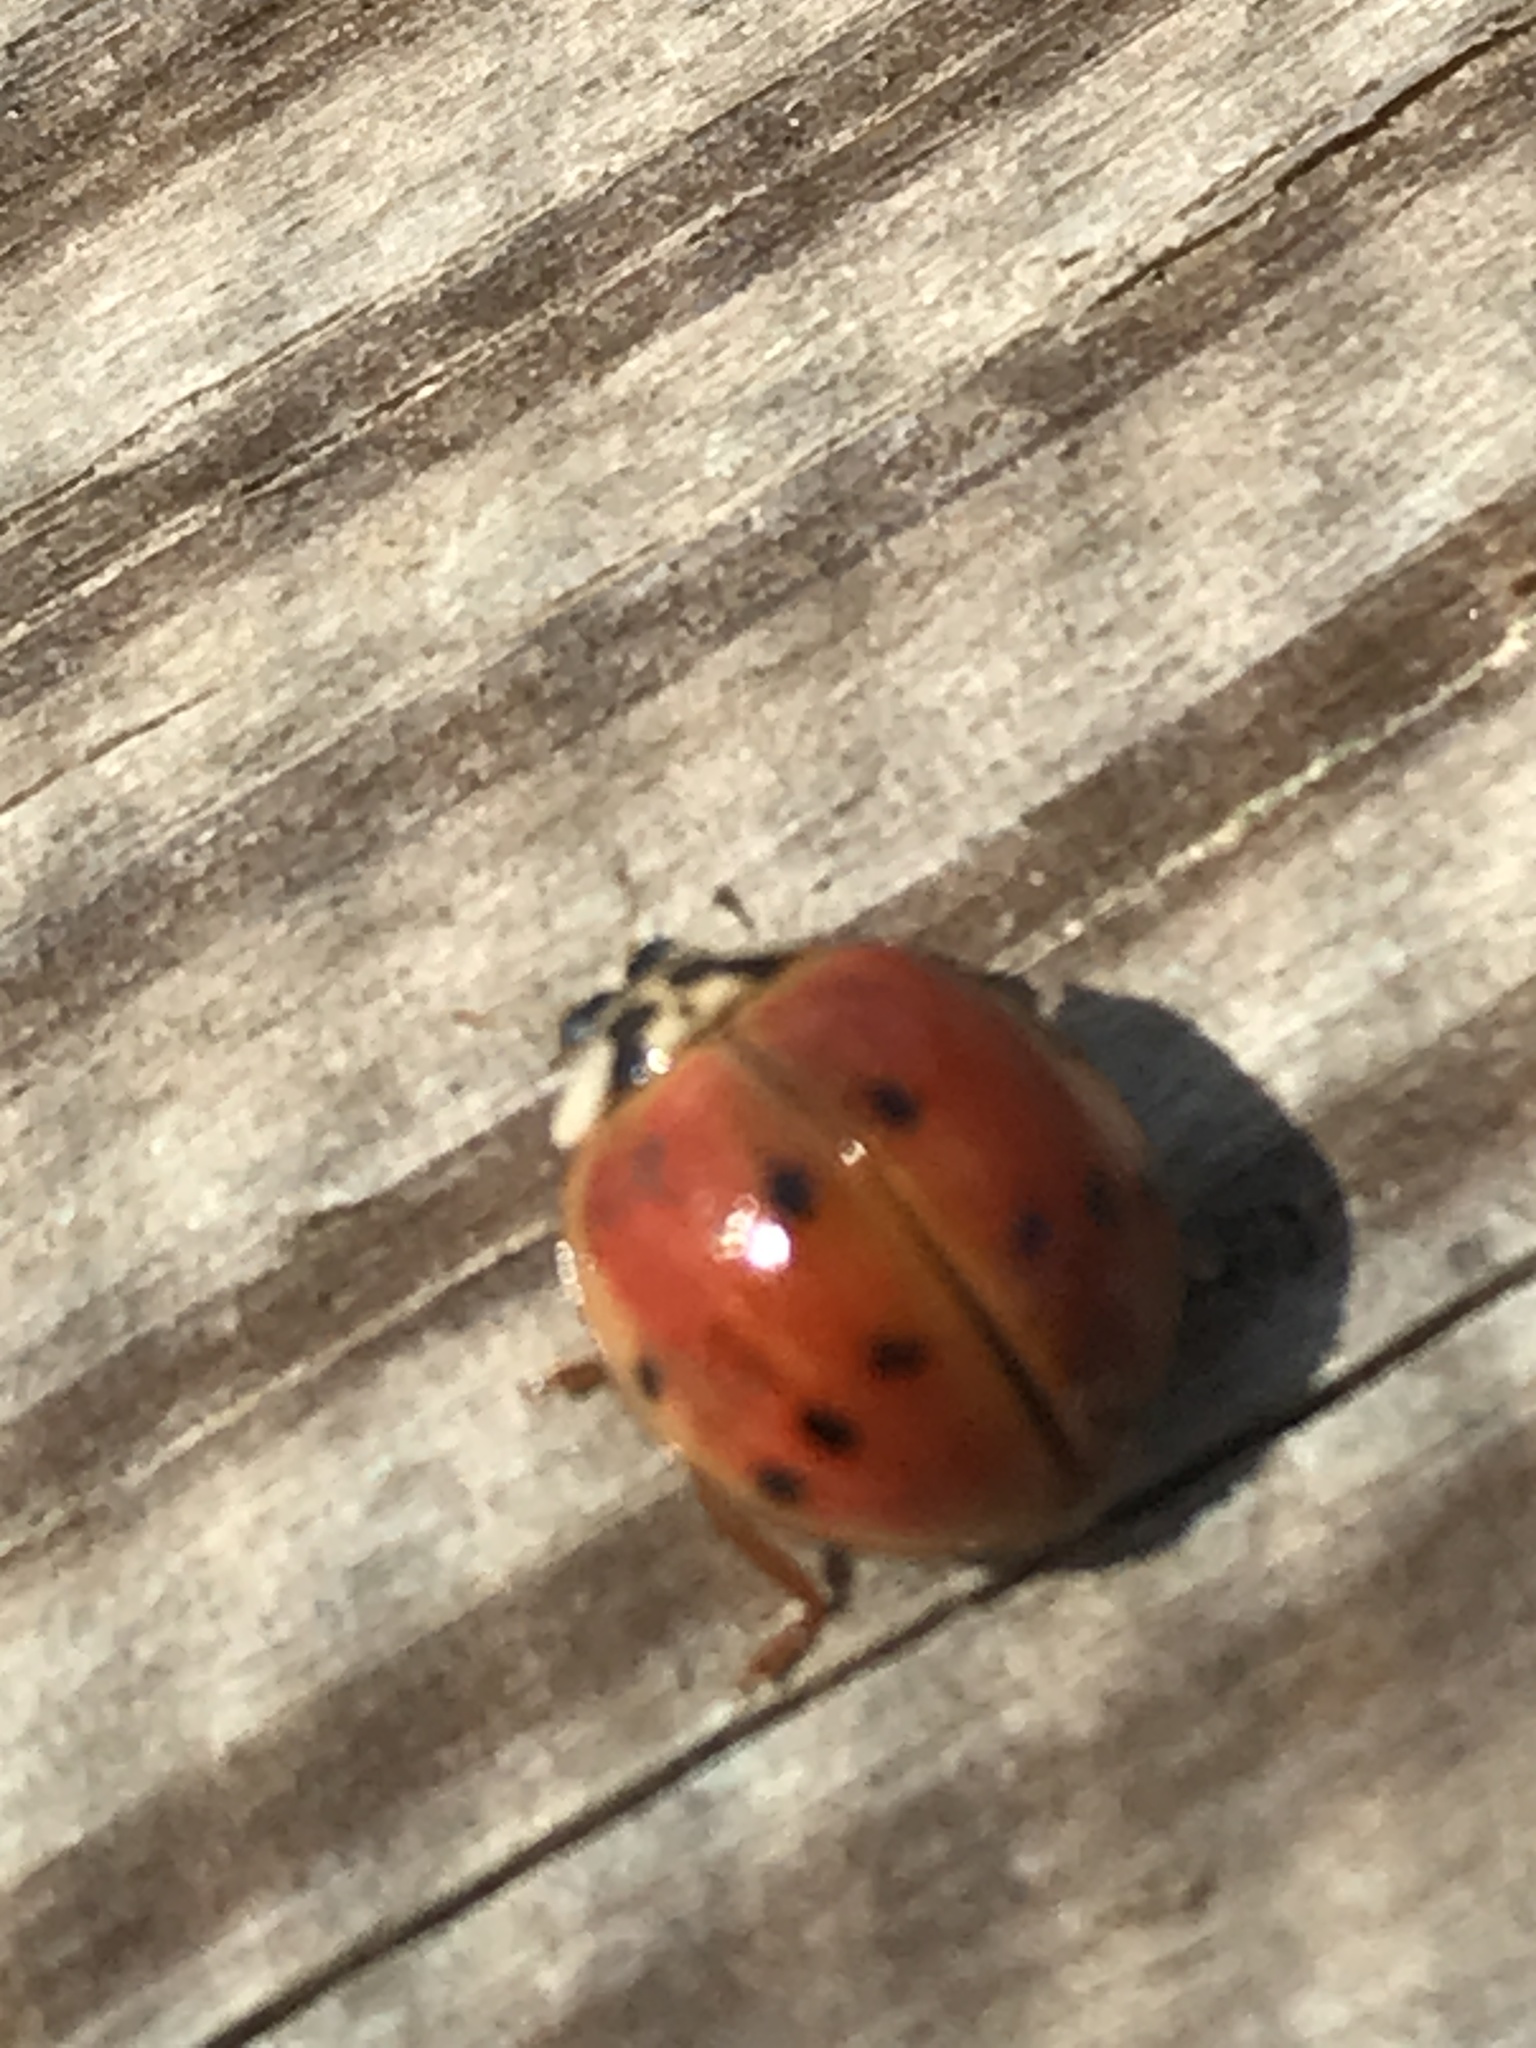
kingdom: Animalia
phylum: Arthropoda
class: Insecta
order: Coleoptera
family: Coccinellidae
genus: Harmonia
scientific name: Harmonia axyridis
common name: Harlequin ladybird
